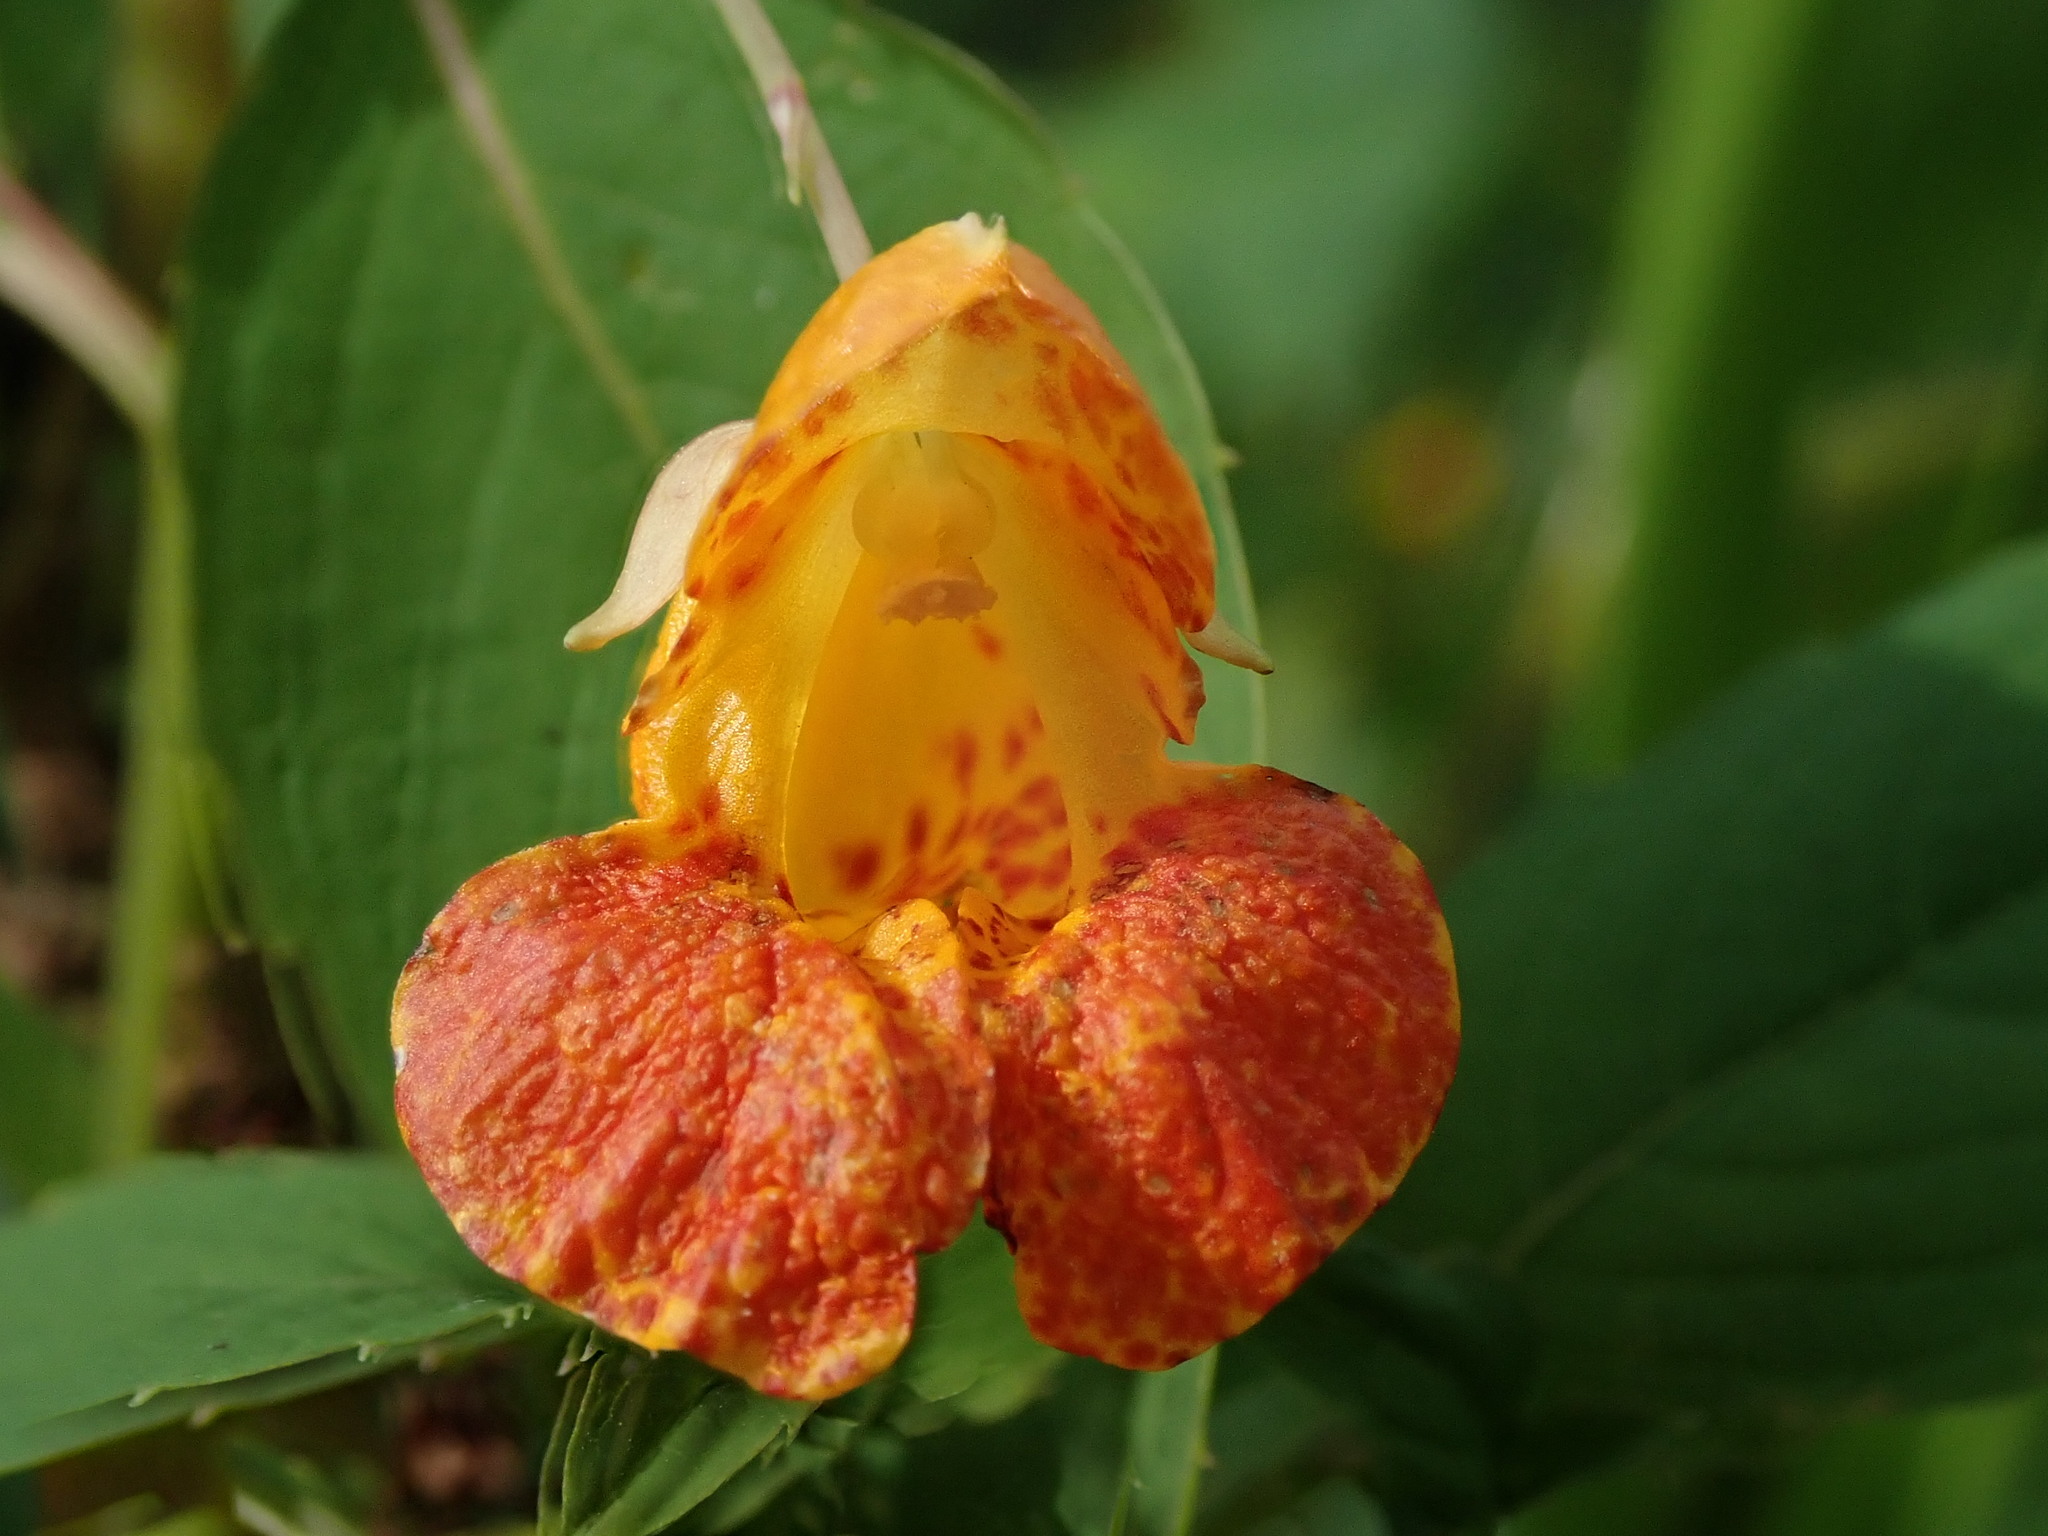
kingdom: Plantae
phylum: Tracheophyta
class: Magnoliopsida
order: Ericales
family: Balsaminaceae
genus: Impatiens
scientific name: Impatiens capensis
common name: Orange balsam
